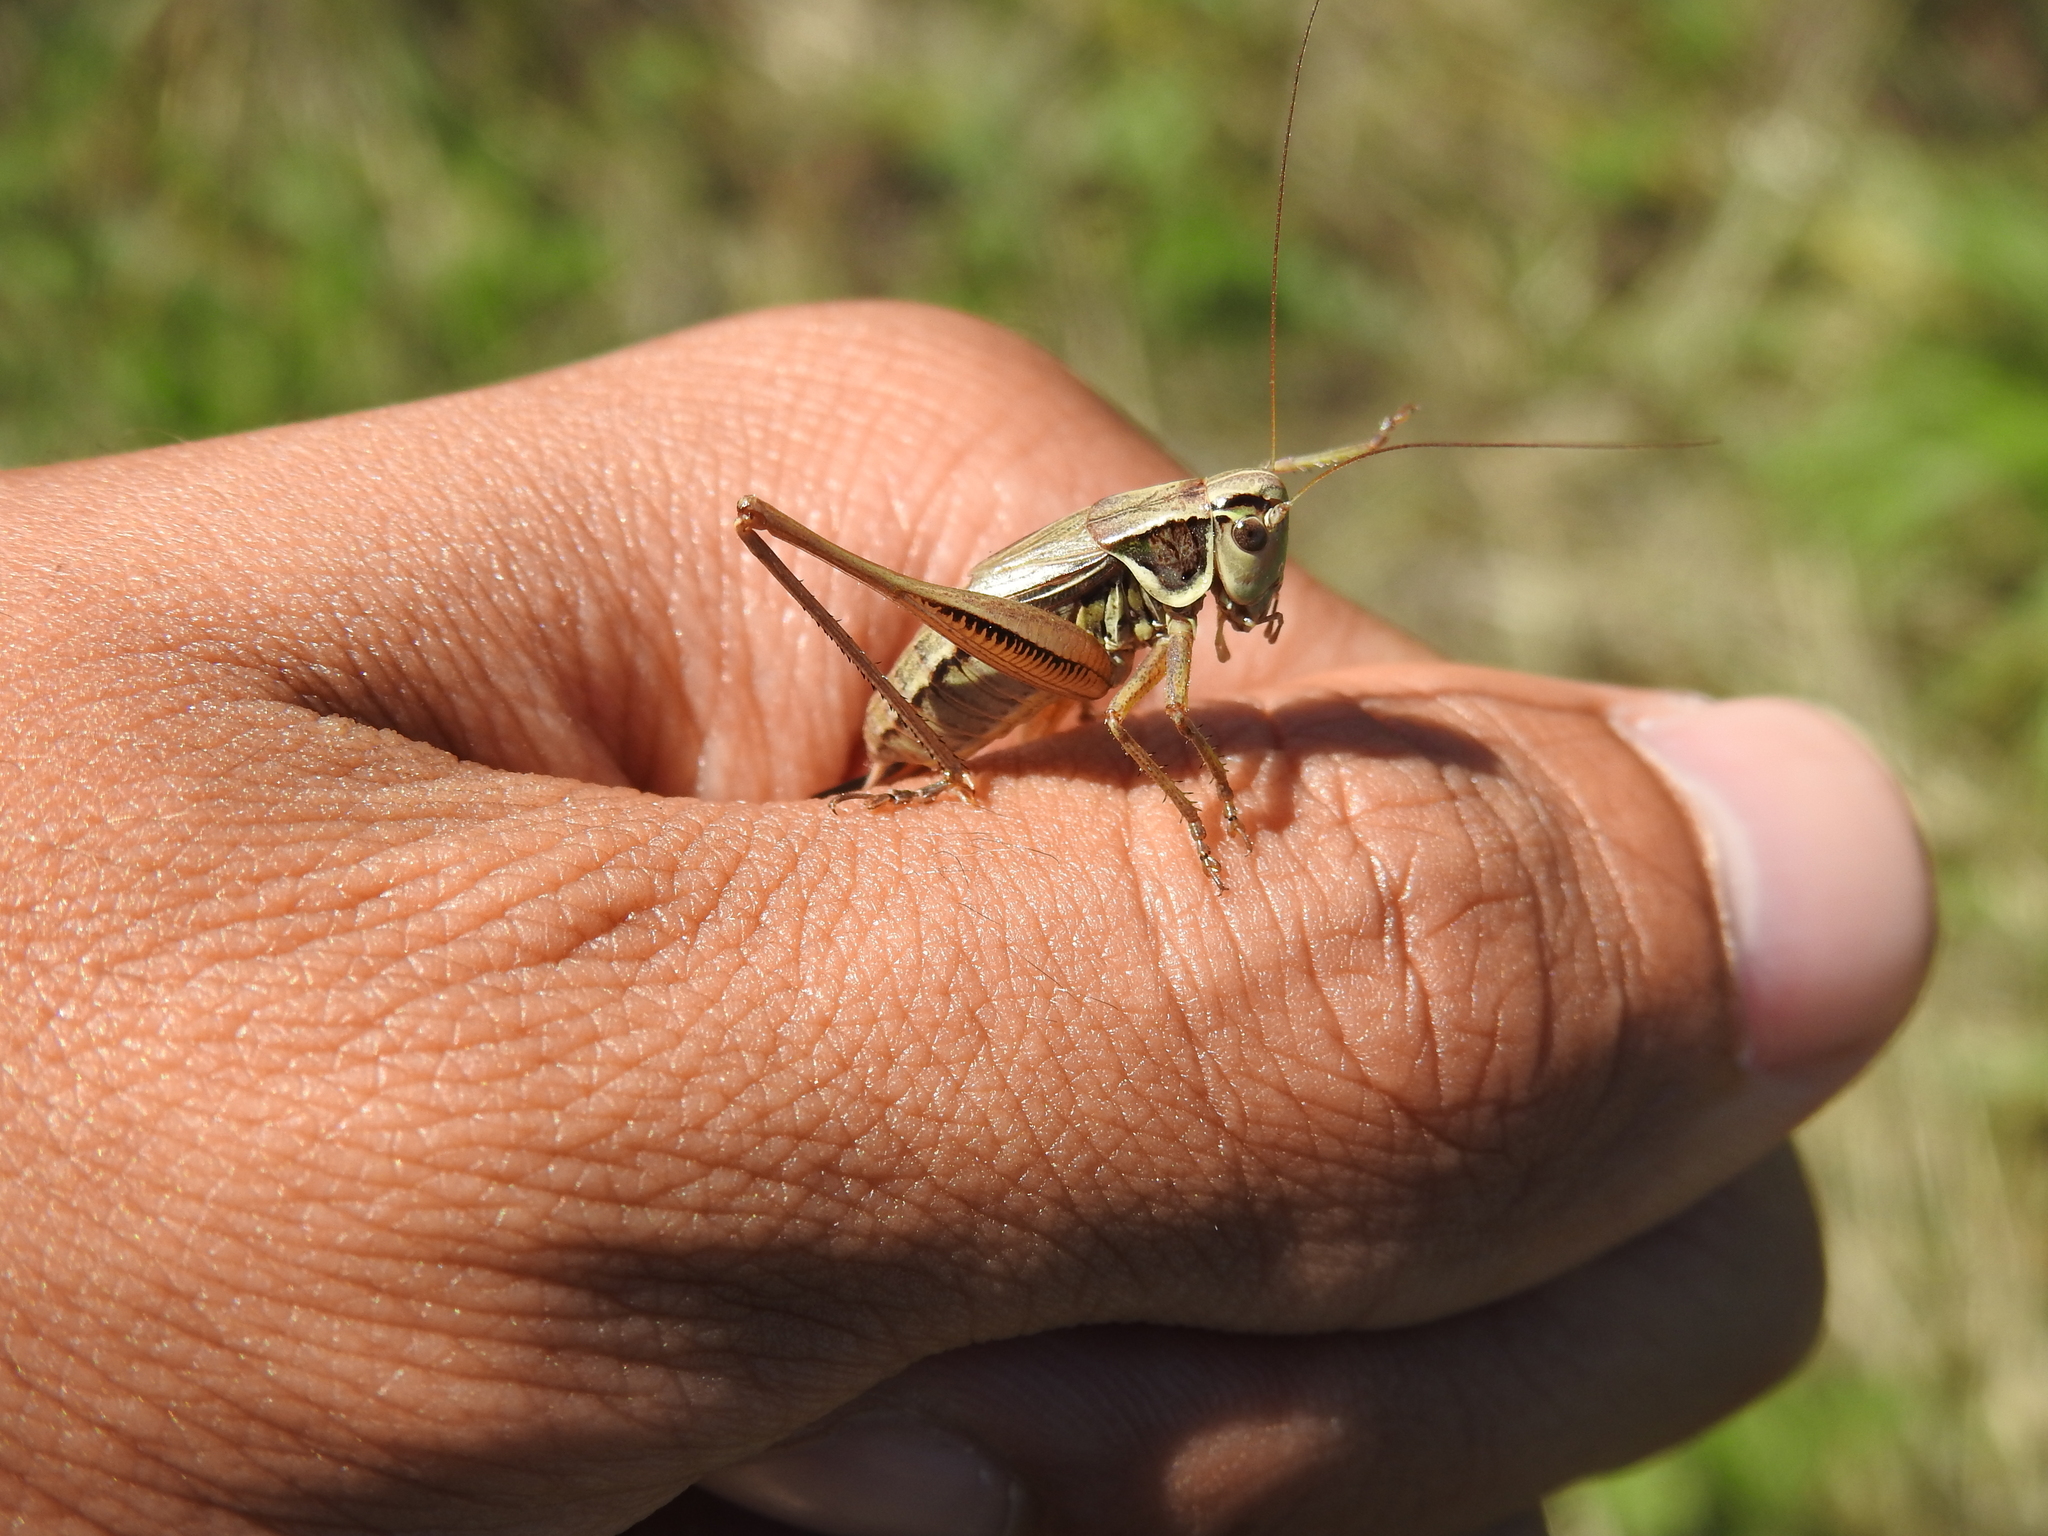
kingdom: Animalia
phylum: Arthropoda
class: Insecta
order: Orthoptera
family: Tettigoniidae
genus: Roeseliana
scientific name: Roeseliana roeselii
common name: Roesel's bush cricket
